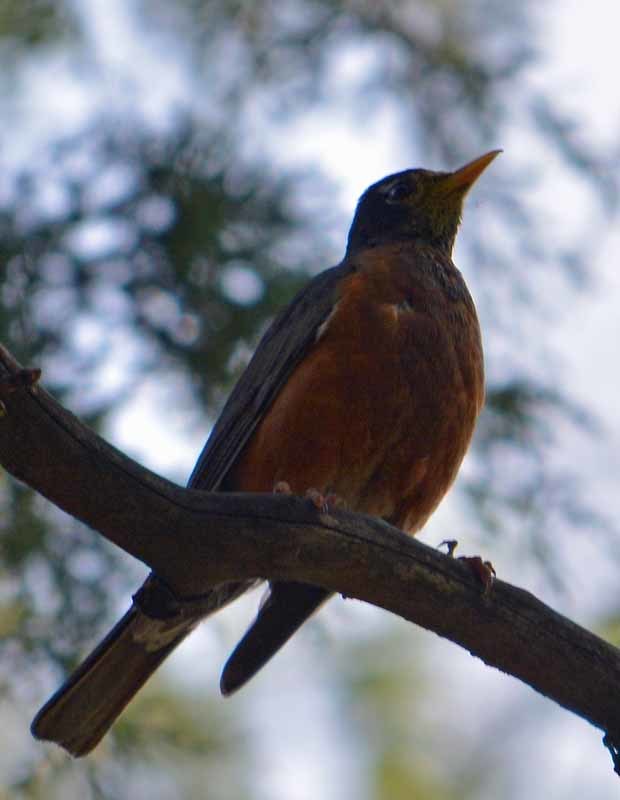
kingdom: Animalia
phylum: Chordata
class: Aves
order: Passeriformes
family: Turdidae
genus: Turdus
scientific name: Turdus migratorius
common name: American robin
